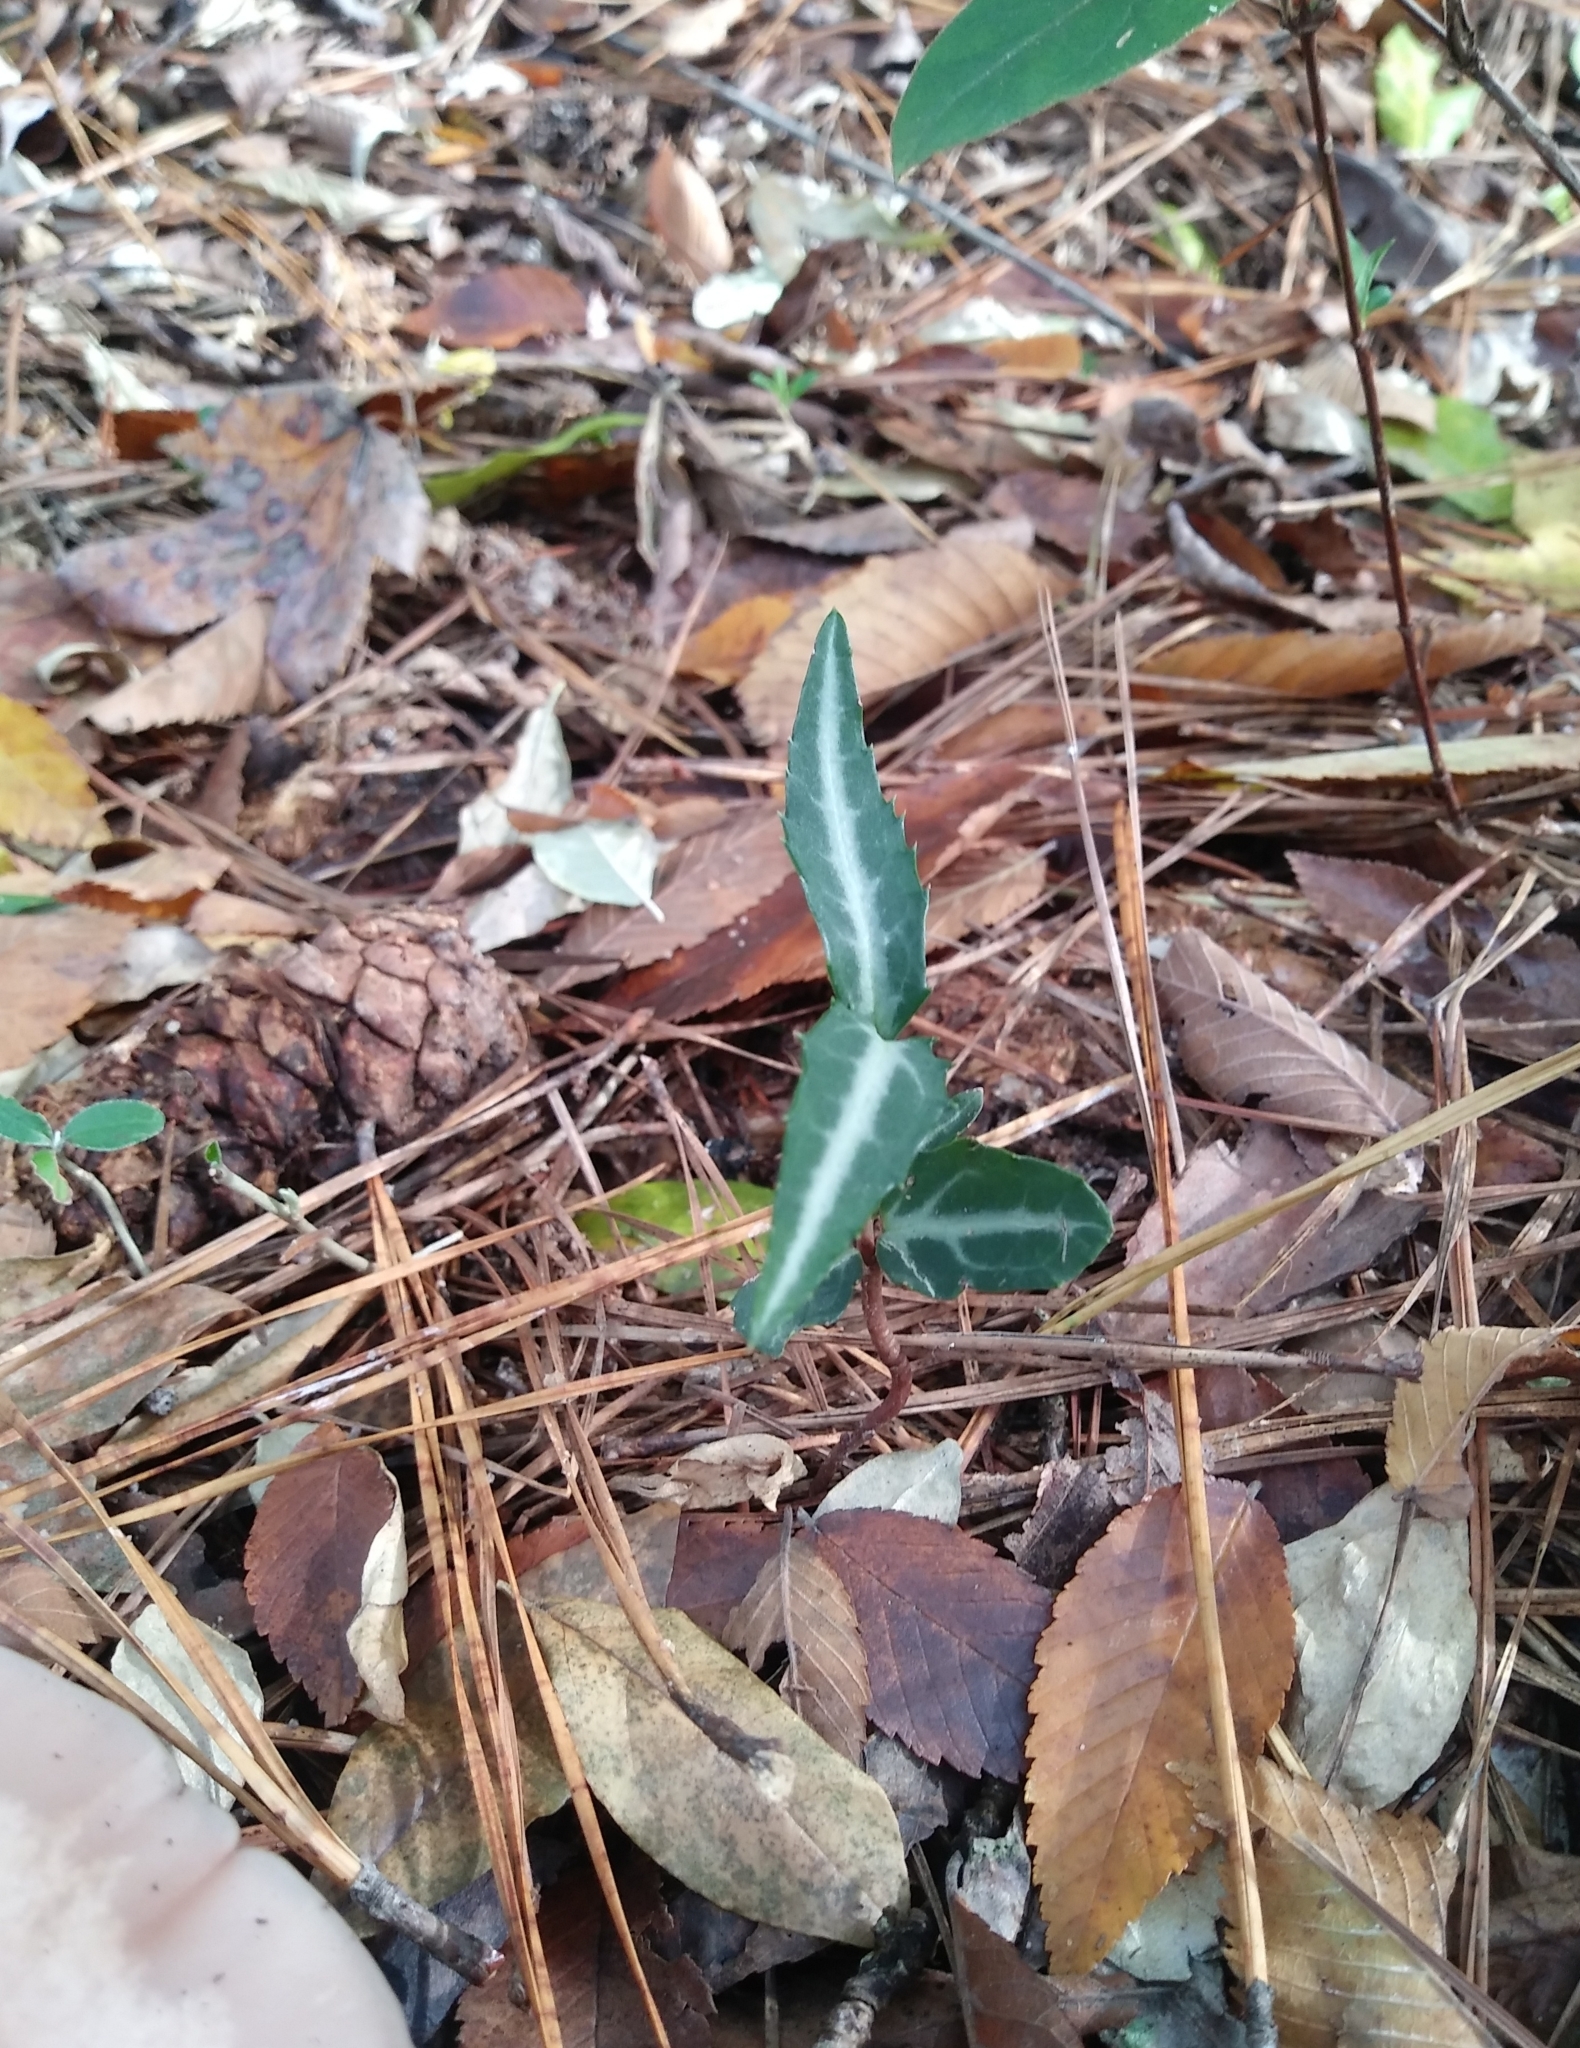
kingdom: Plantae
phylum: Tracheophyta
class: Magnoliopsida
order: Ericales
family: Ericaceae
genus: Chimaphila
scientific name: Chimaphila maculata
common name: Spotted pipsissewa
